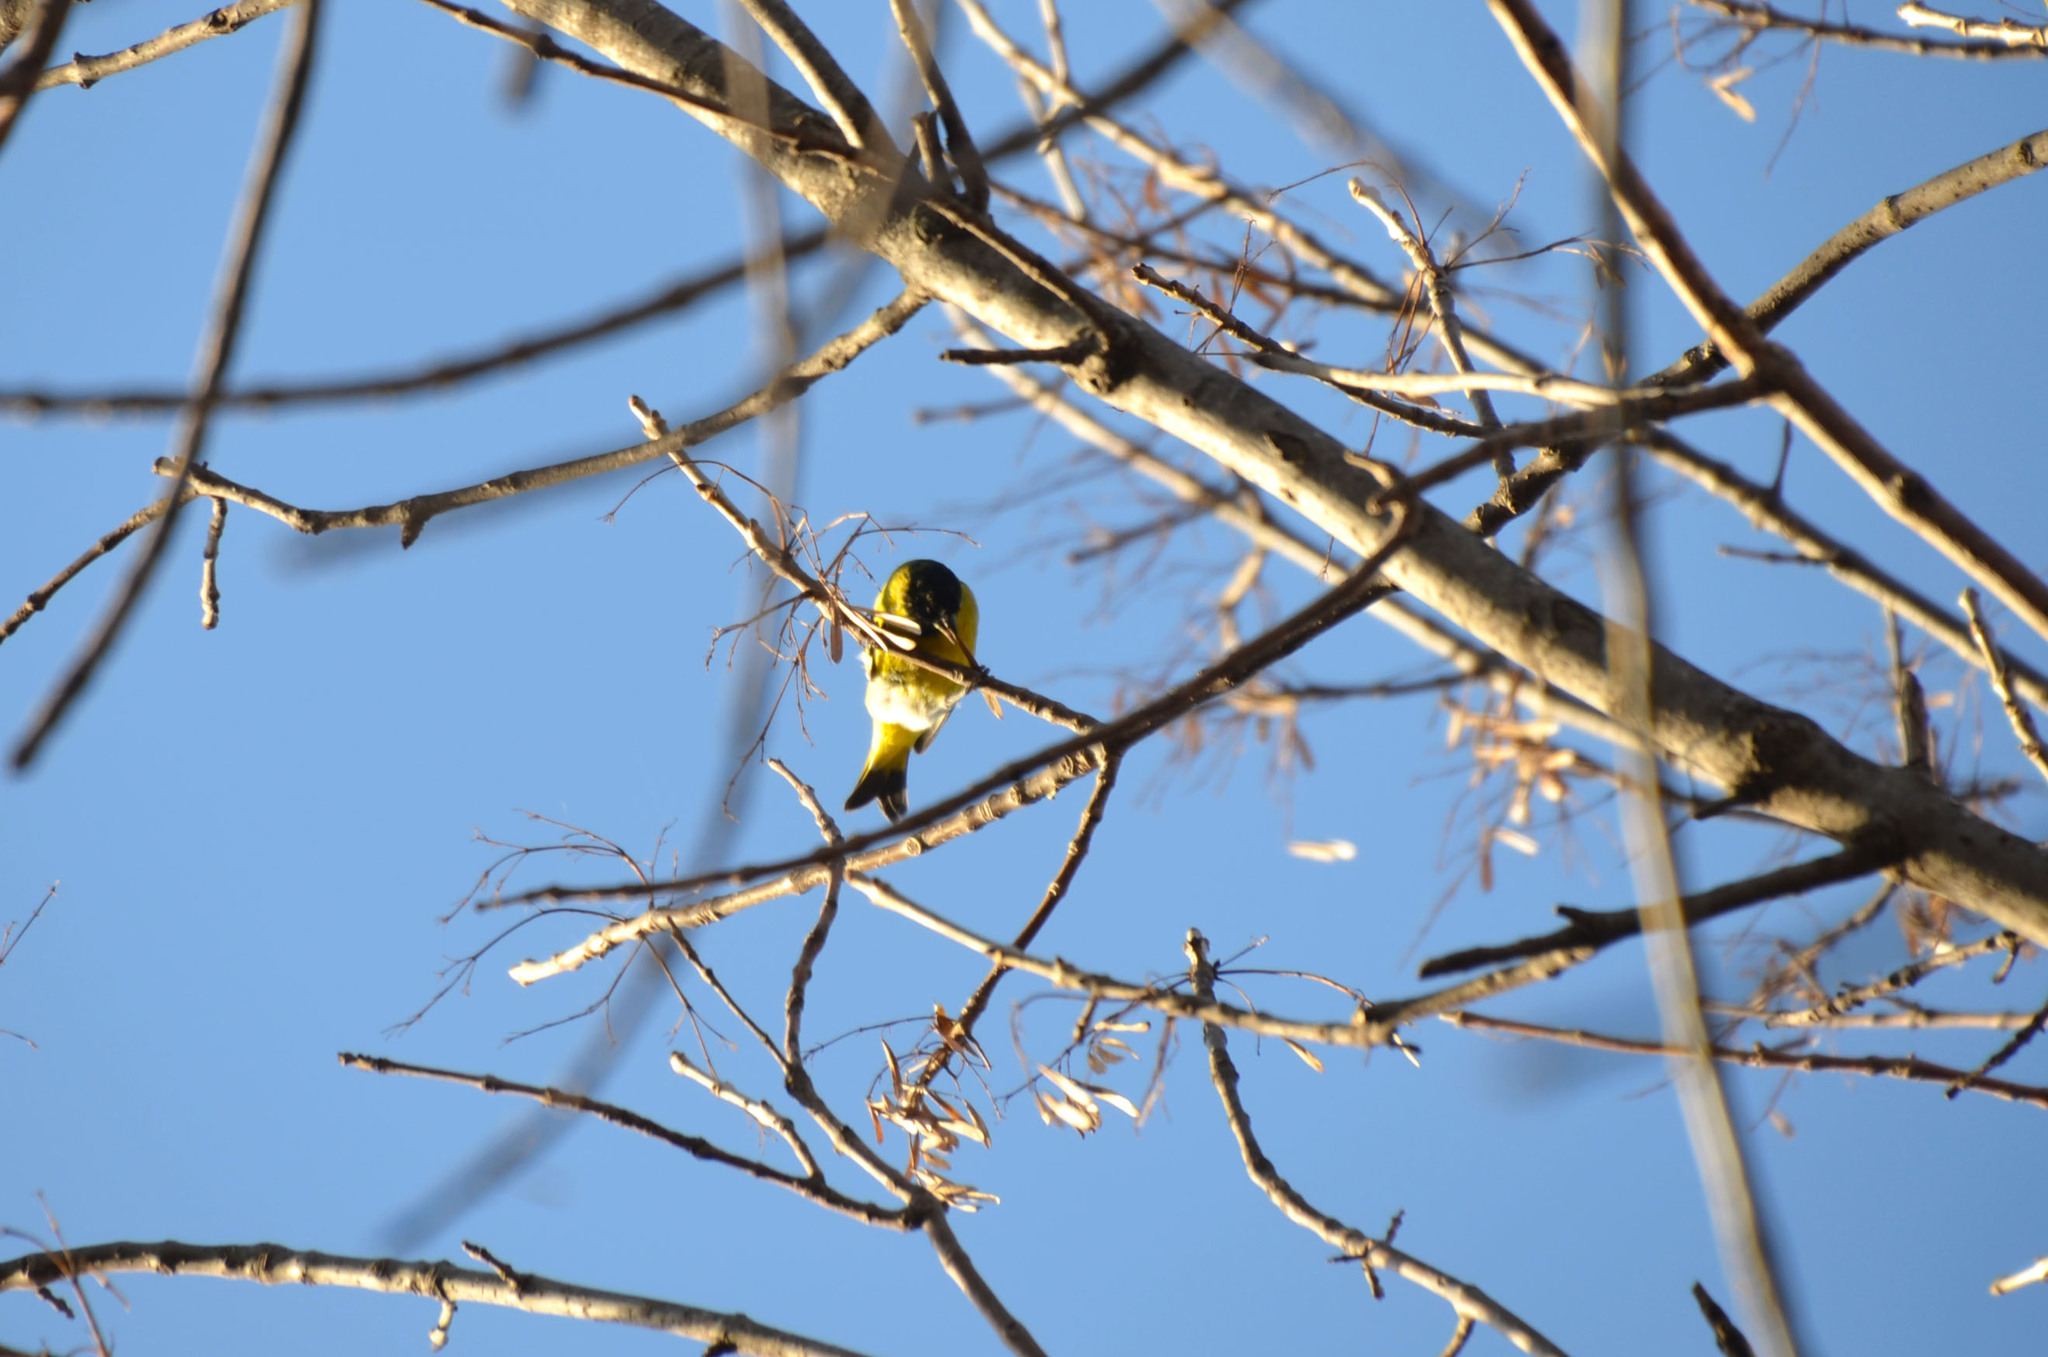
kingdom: Animalia
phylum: Chordata
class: Aves
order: Passeriformes
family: Fringillidae
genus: Spinus
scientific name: Spinus magellanicus
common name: Hooded siskin
